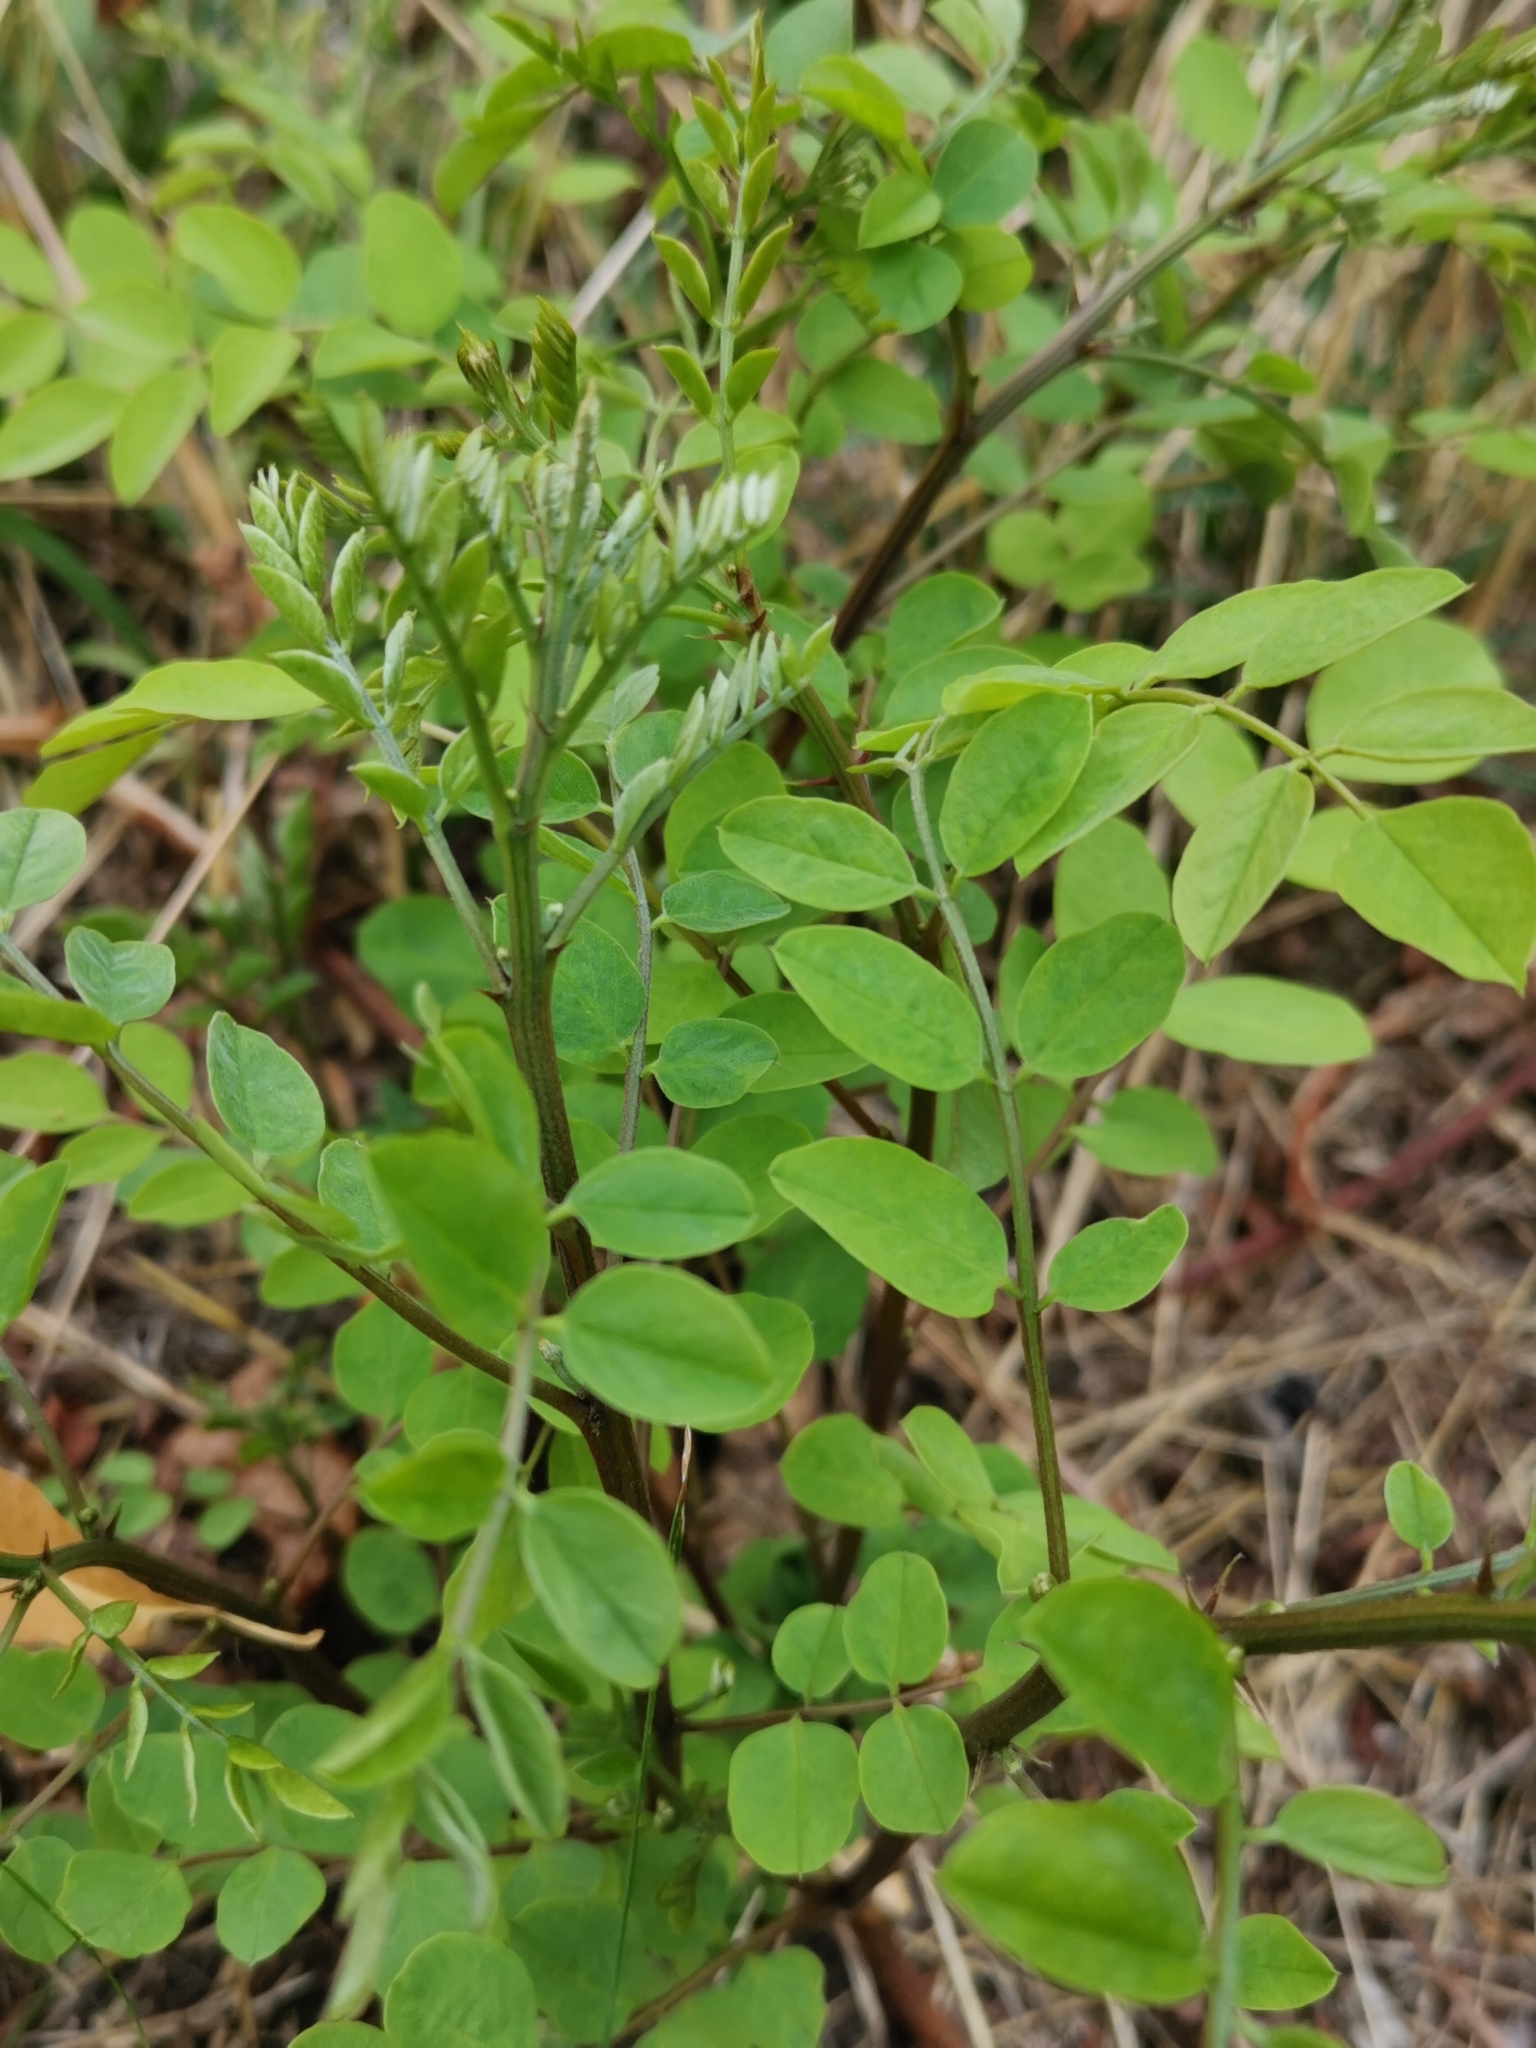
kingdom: Plantae
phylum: Tracheophyta
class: Magnoliopsida
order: Fabales
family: Fabaceae
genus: Robinia
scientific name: Robinia pseudoacacia
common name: Black locust
